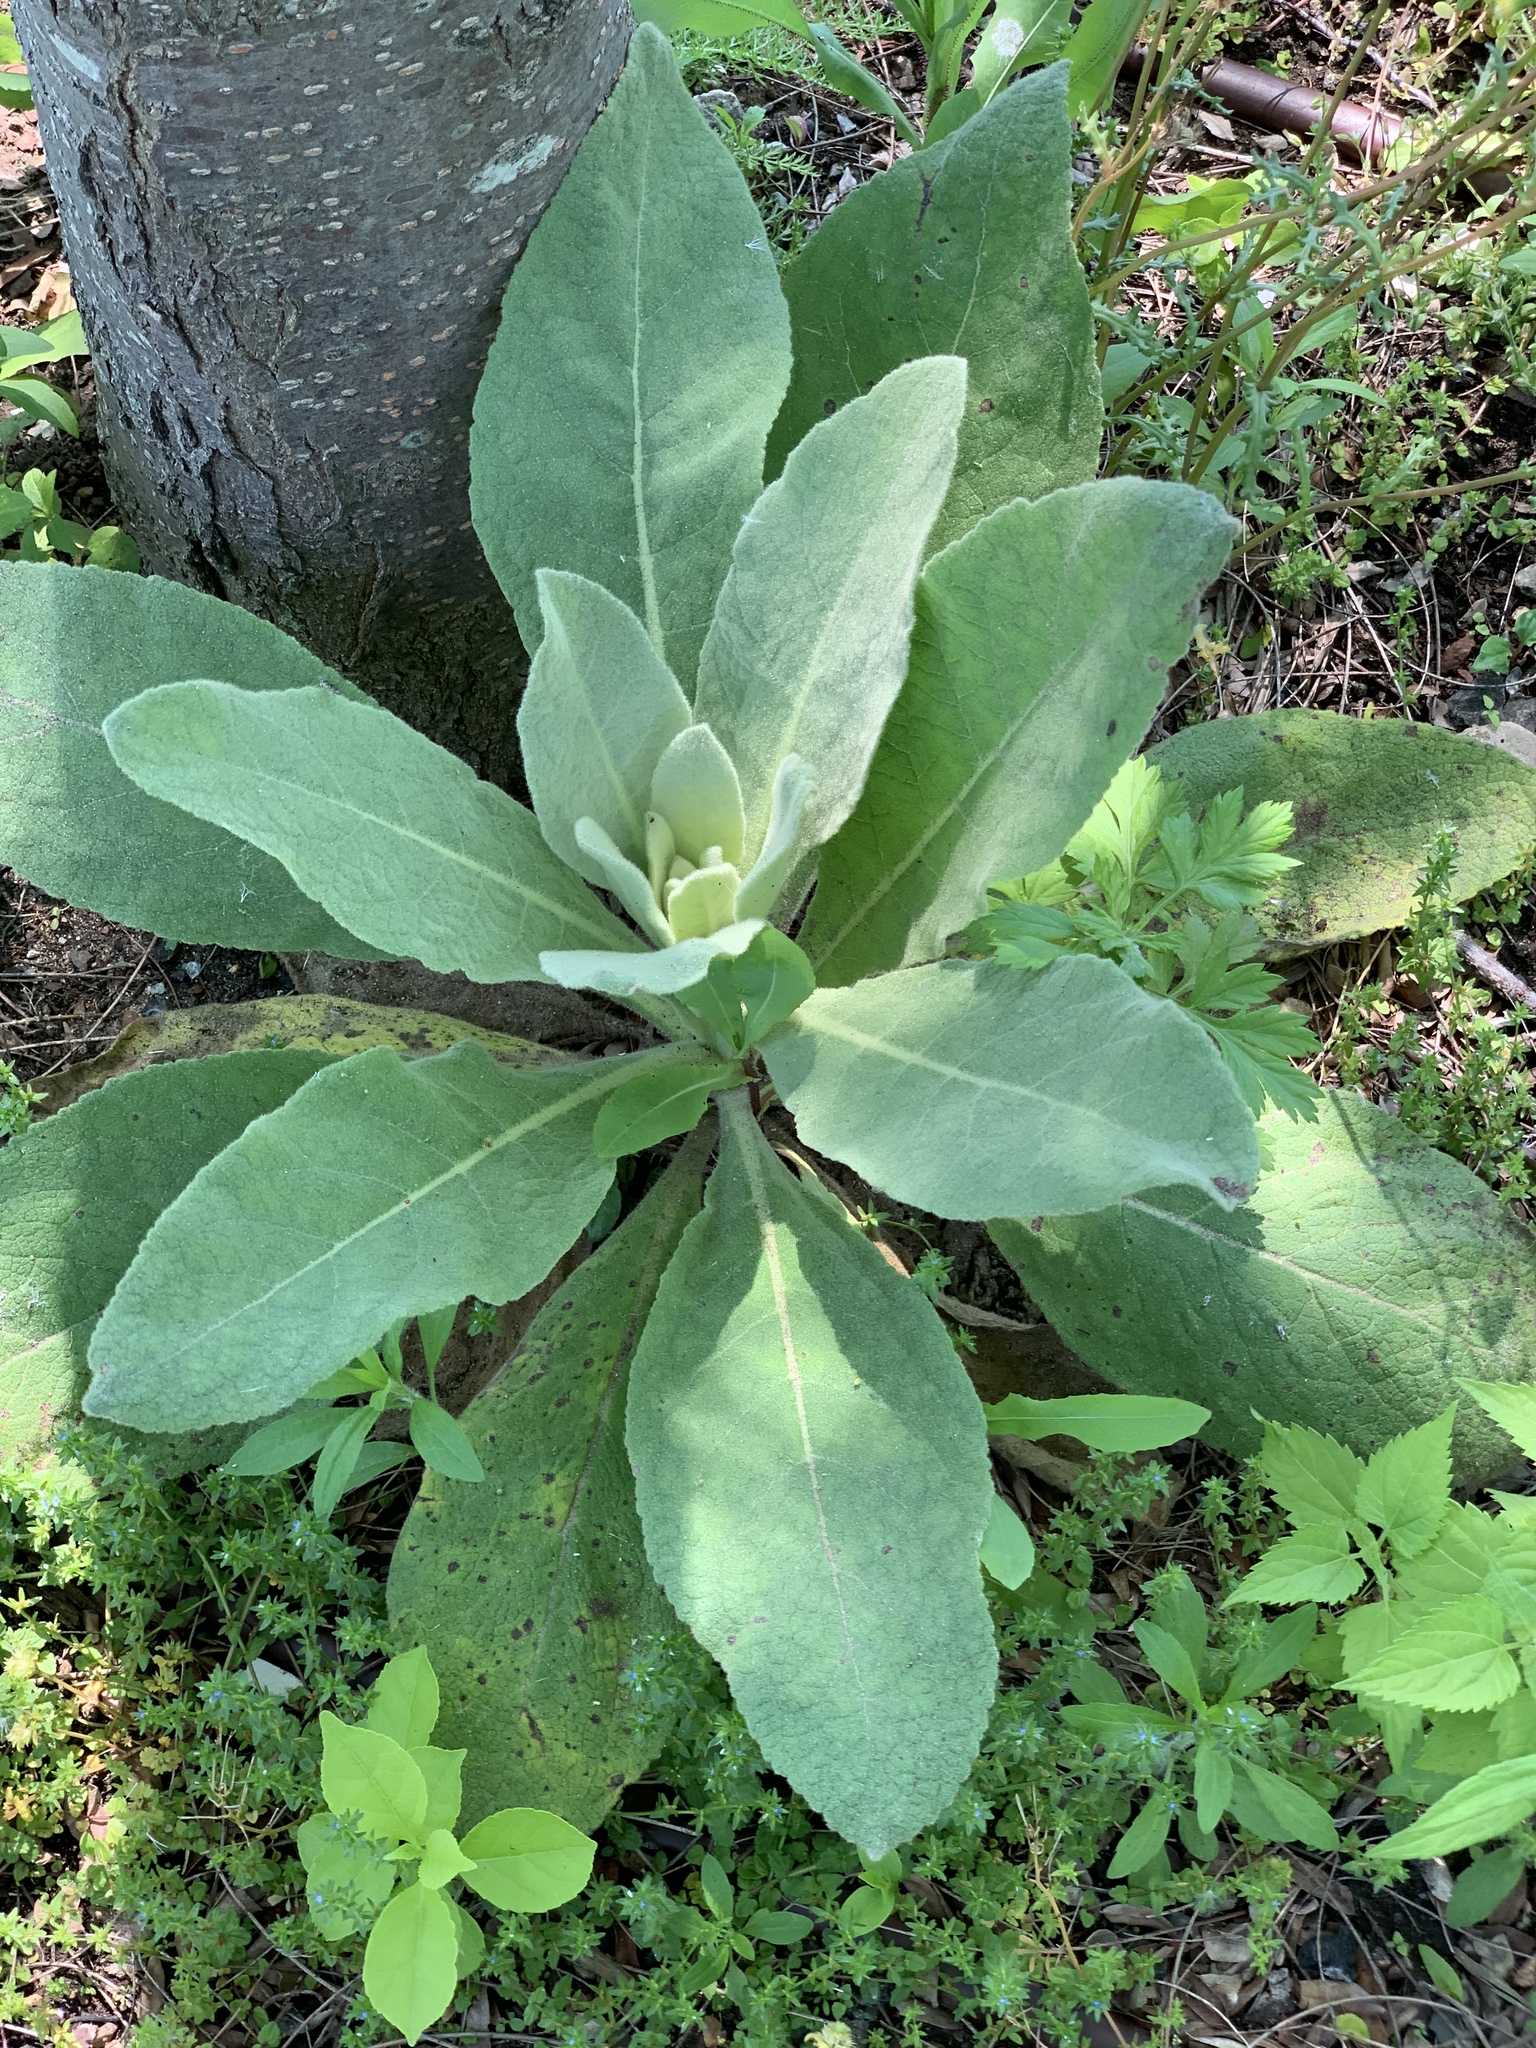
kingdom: Plantae
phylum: Tracheophyta
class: Magnoliopsida
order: Lamiales
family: Scrophulariaceae
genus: Verbascum
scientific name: Verbascum thapsus
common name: Common mullein
